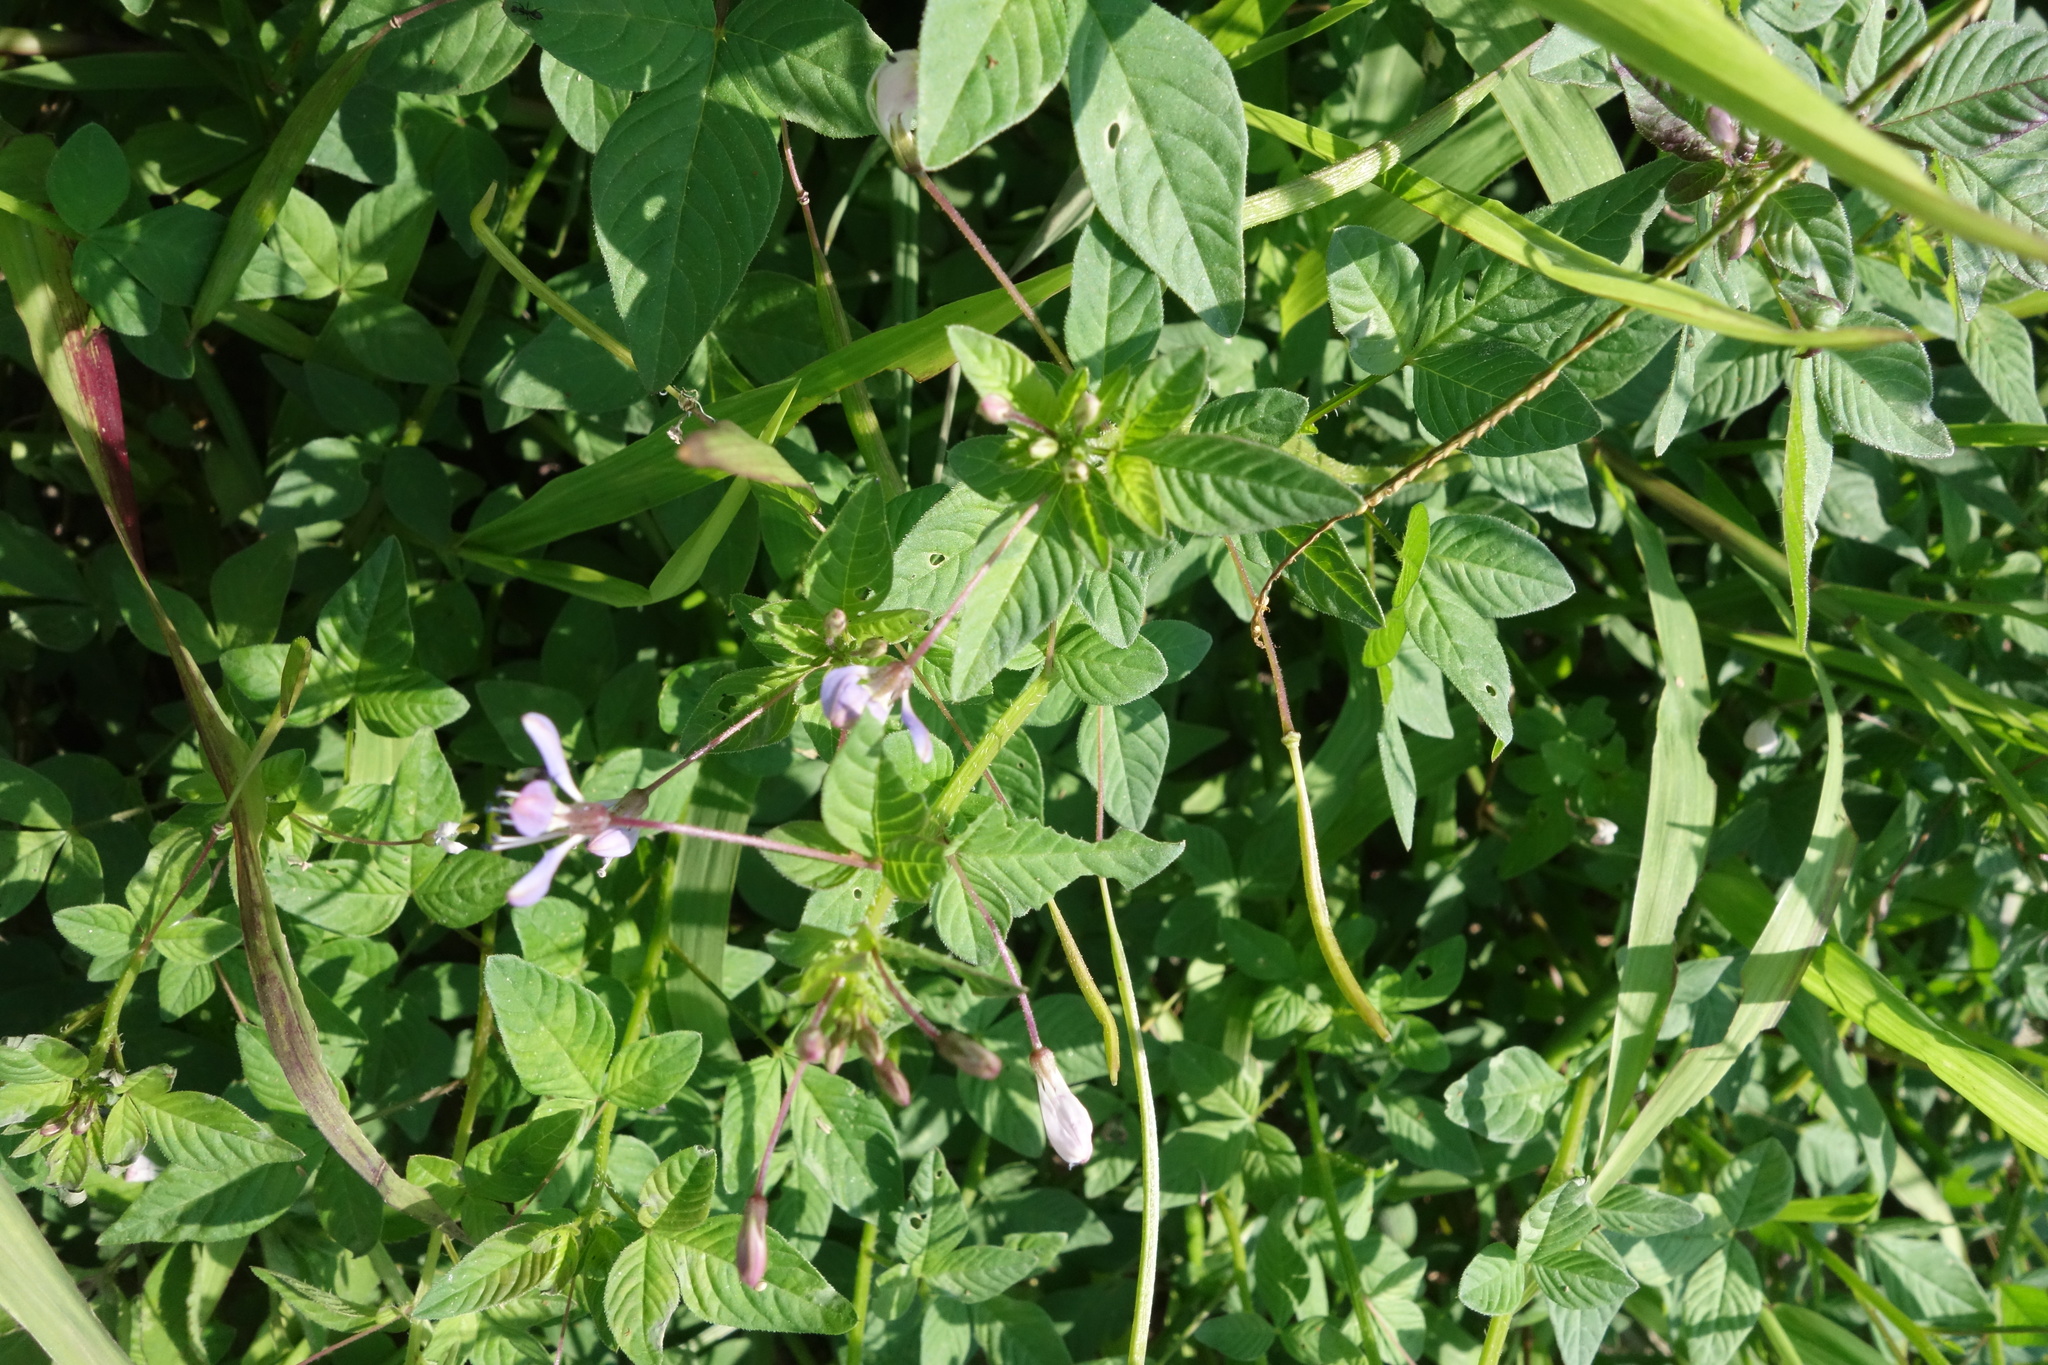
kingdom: Plantae
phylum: Tracheophyta
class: Magnoliopsida
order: Brassicales
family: Cleomaceae
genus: Sieruela
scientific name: Sieruela rutidosperma
